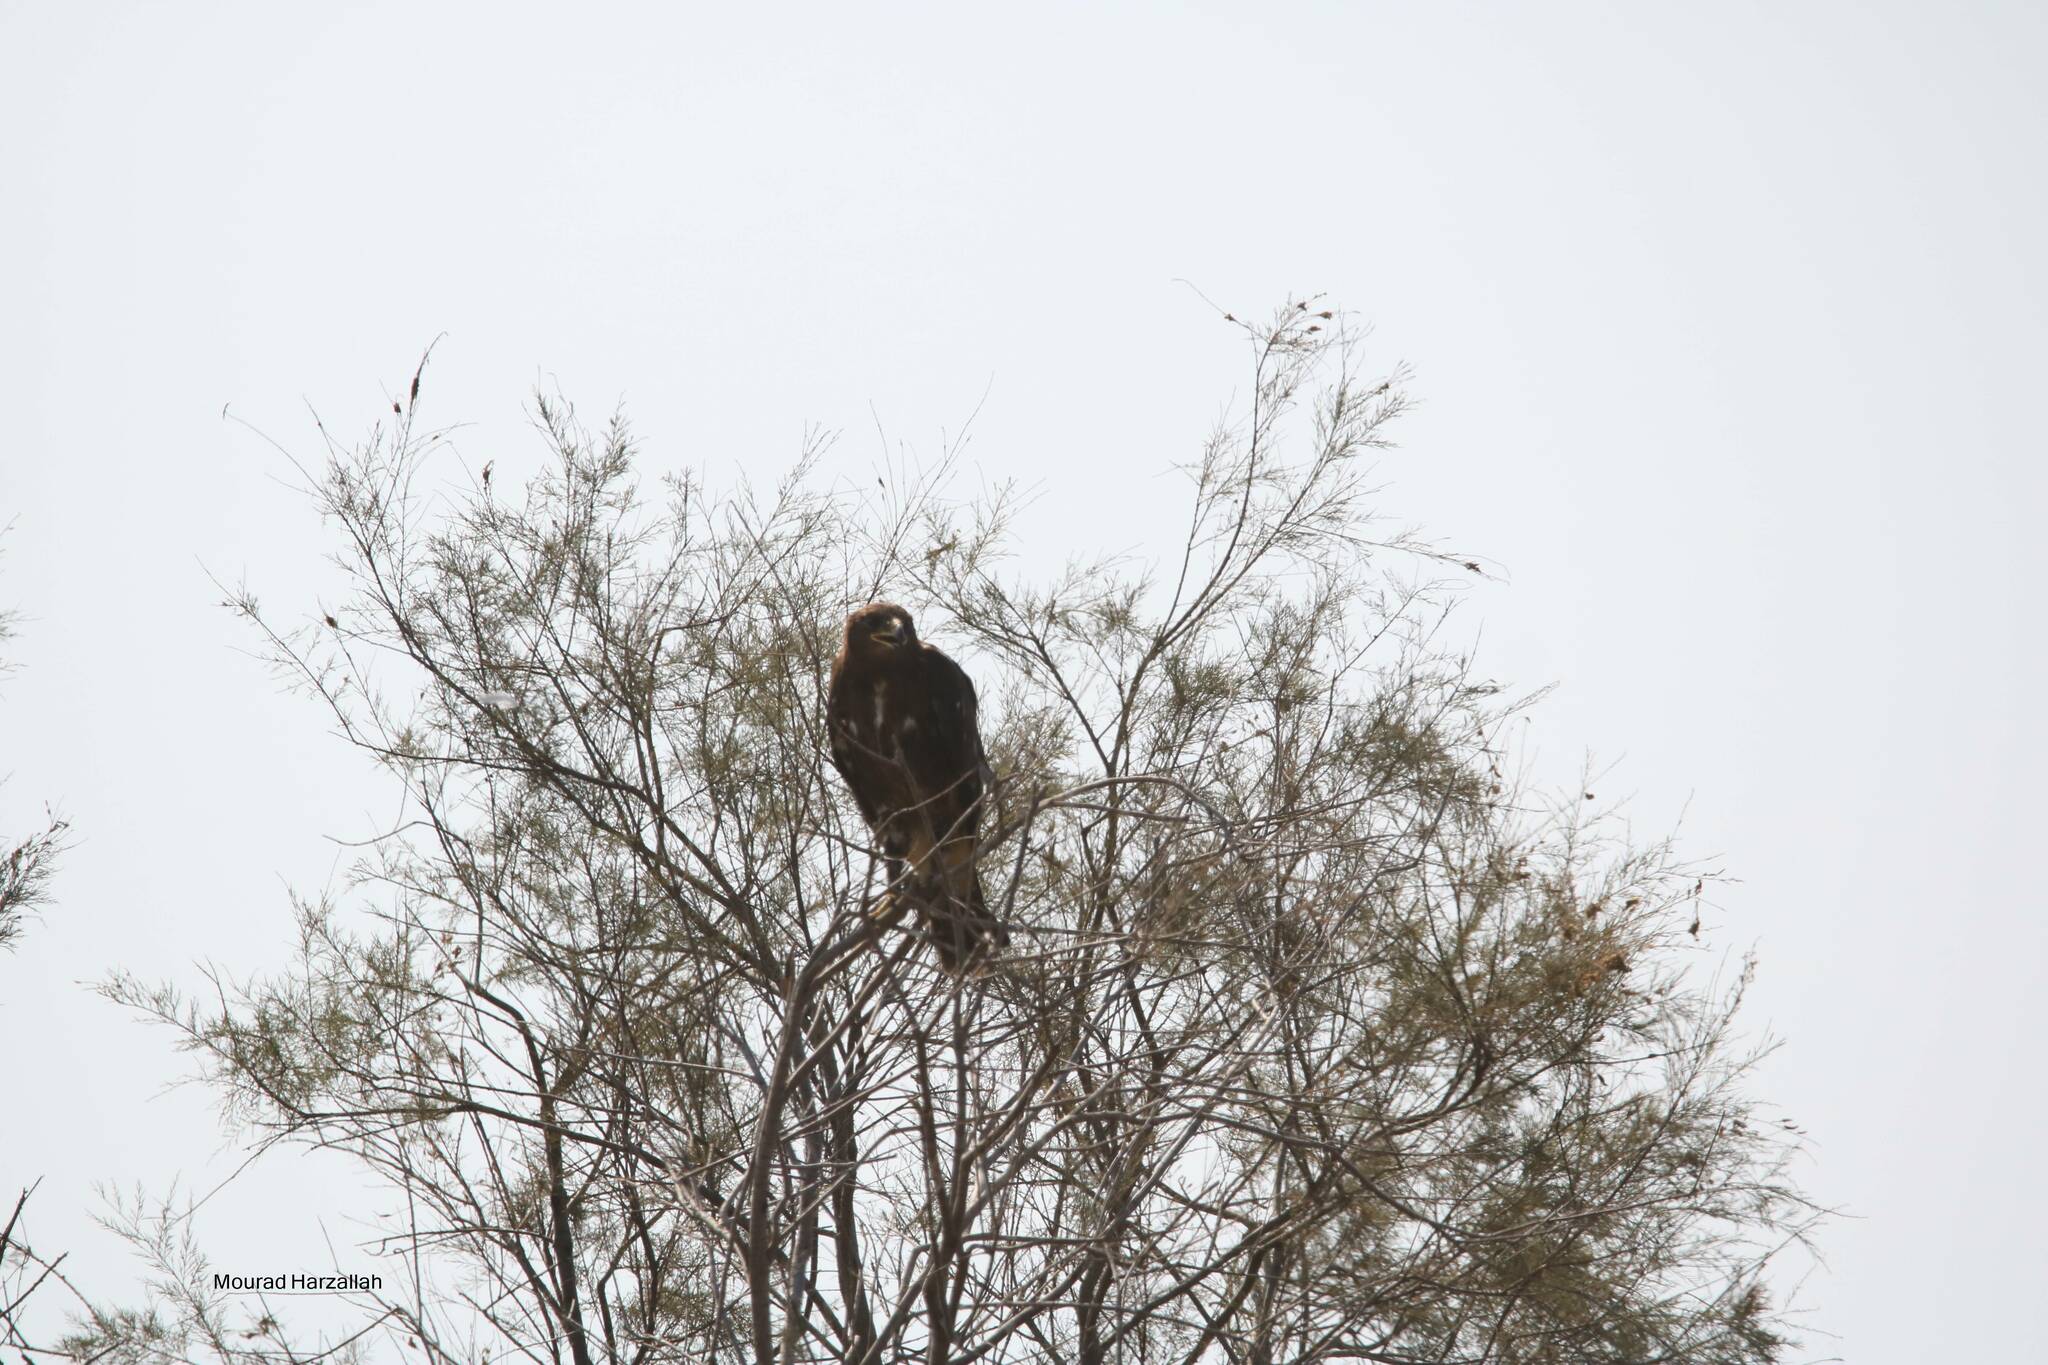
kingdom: Animalia
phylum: Chordata
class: Aves
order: Accipitriformes
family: Accipitridae
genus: Aquila
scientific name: Aquila clanga
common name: Greater spotted eagle
